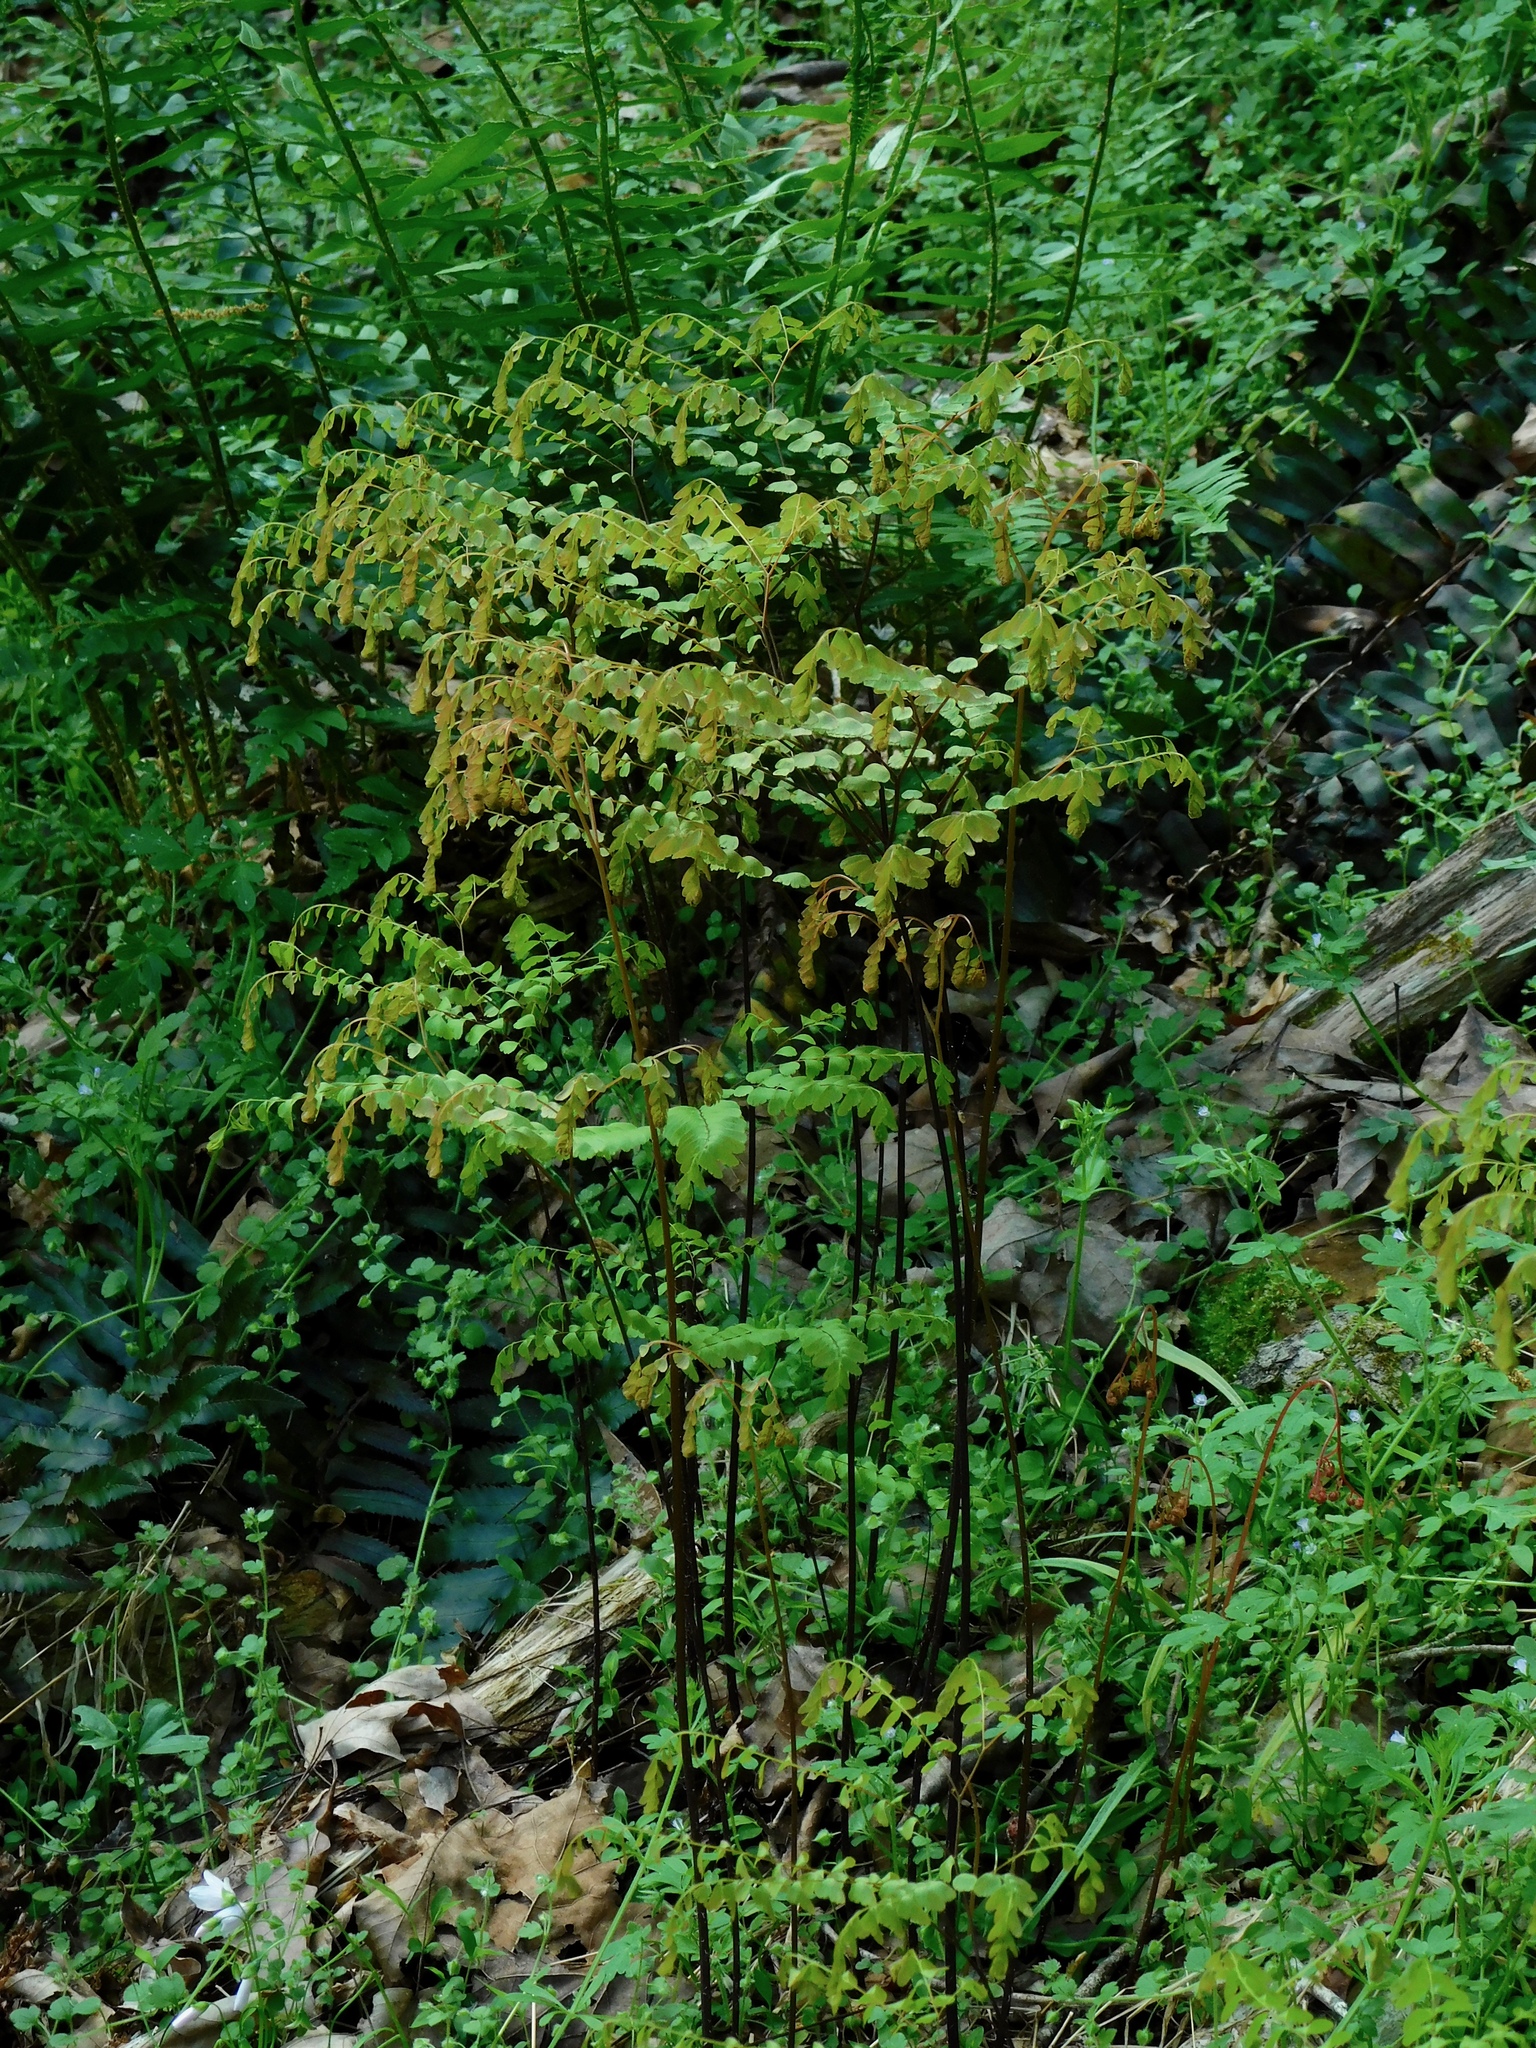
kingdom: Plantae
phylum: Tracheophyta
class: Polypodiopsida
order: Polypodiales
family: Pteridaceae
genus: Adiantum
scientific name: Adiantum pedatum
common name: Five-finger fern
